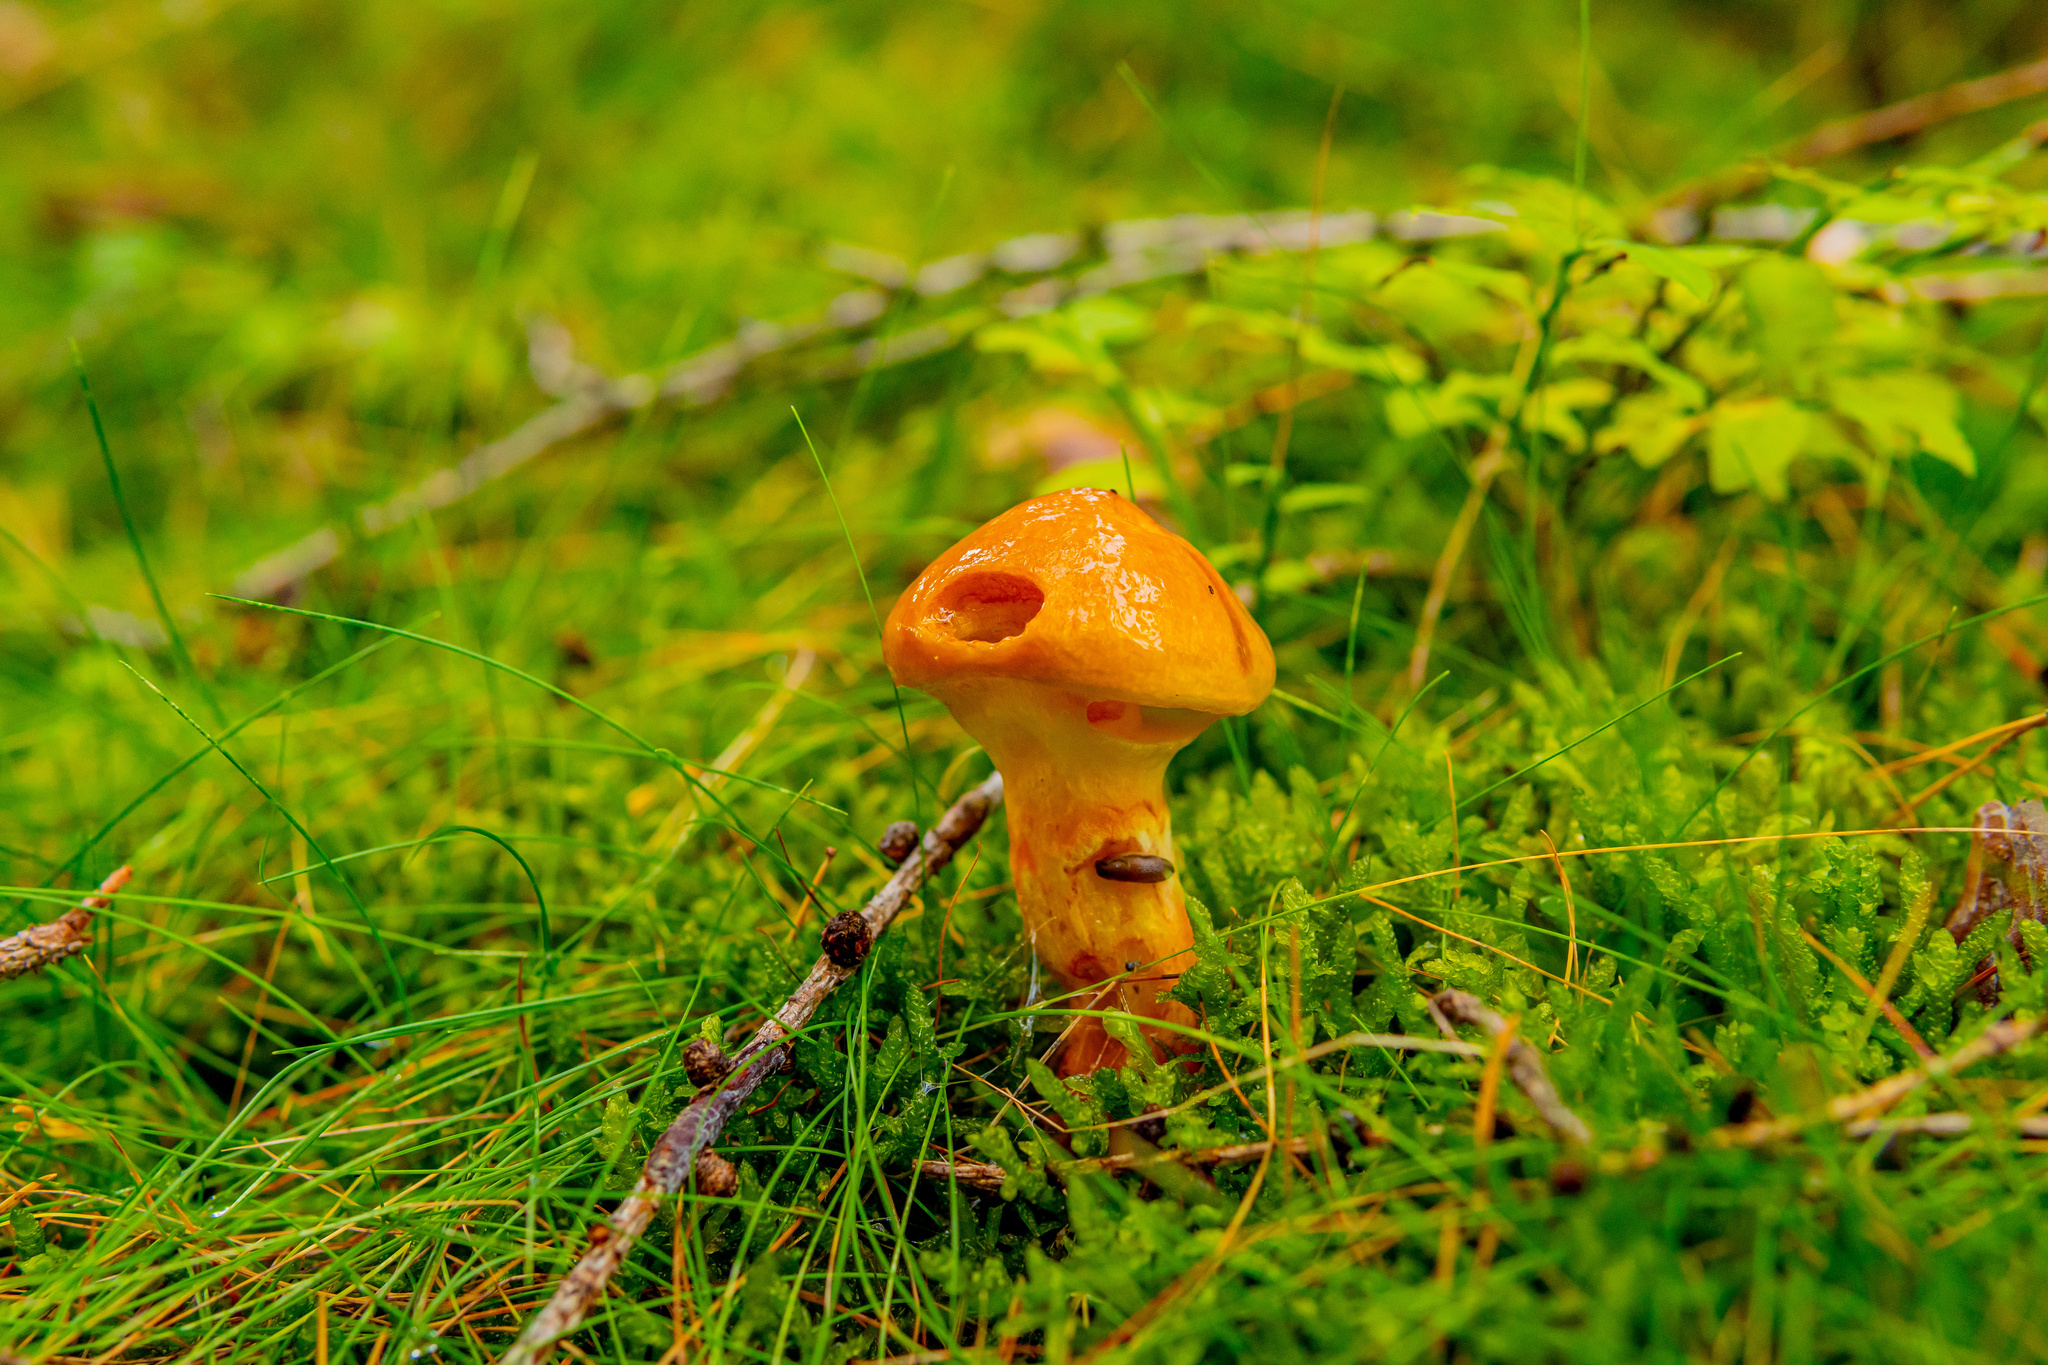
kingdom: Fungi
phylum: Basidiomycota
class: Agaricomycetes
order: Boletales
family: Suillaceae
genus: Suillus
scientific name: Suillus grevillei
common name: Larch bolete
